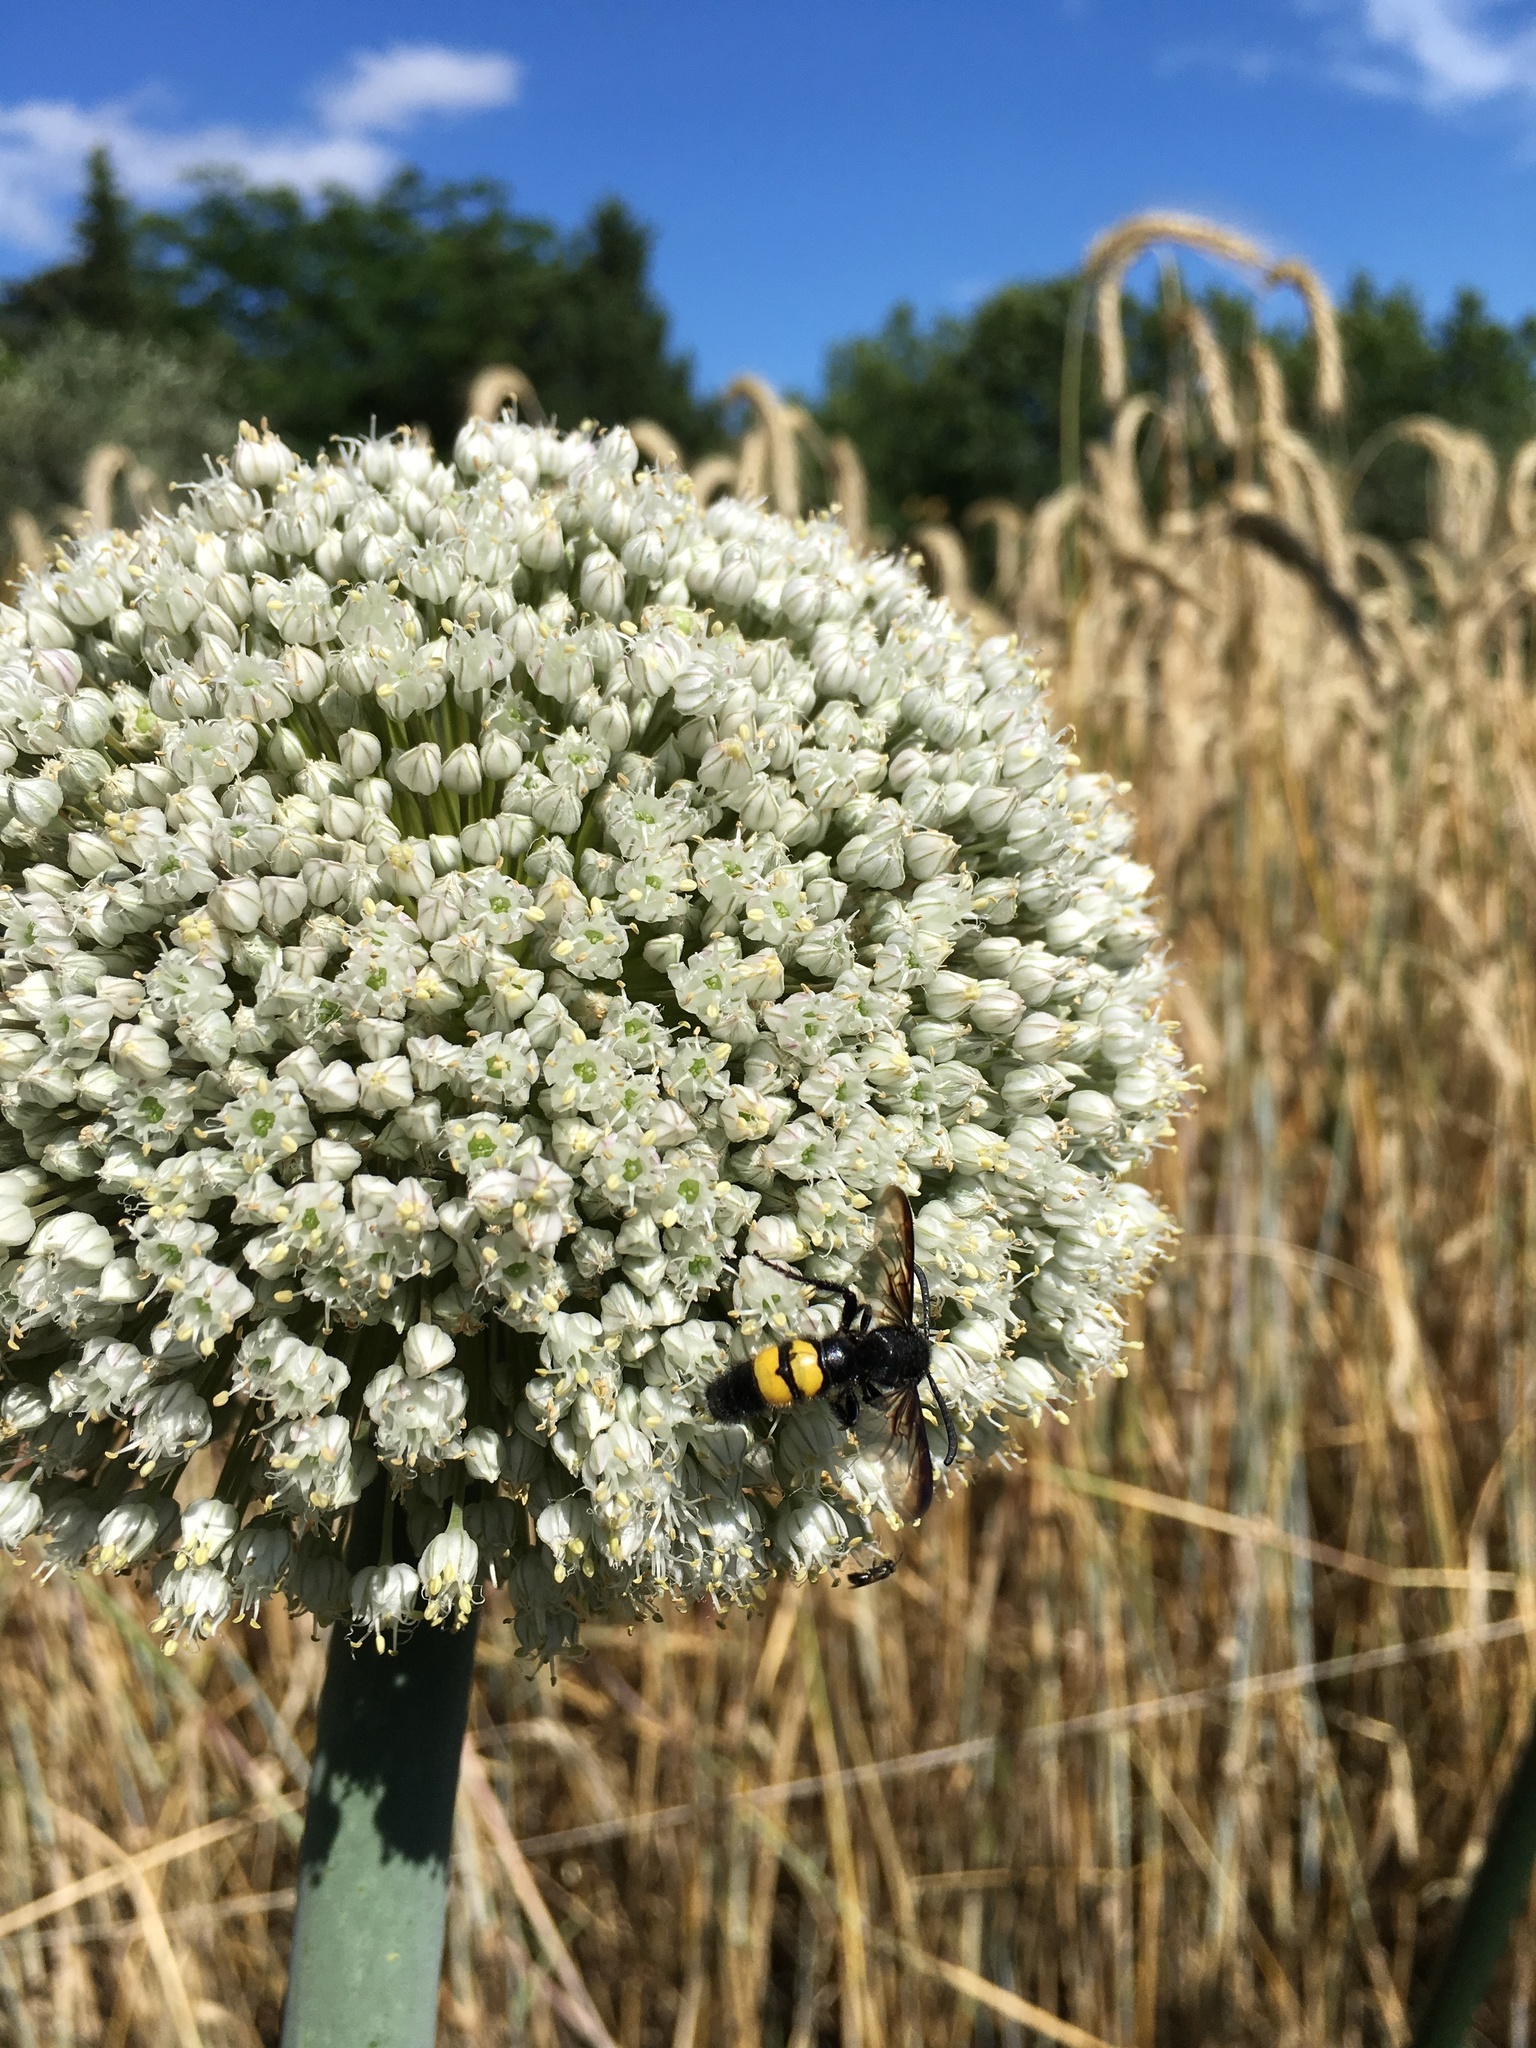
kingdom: Animalia
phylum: Arthropoda
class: Insecta
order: Hymenoptera
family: Scoliidae
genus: Scolia
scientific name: Scolia hirta
